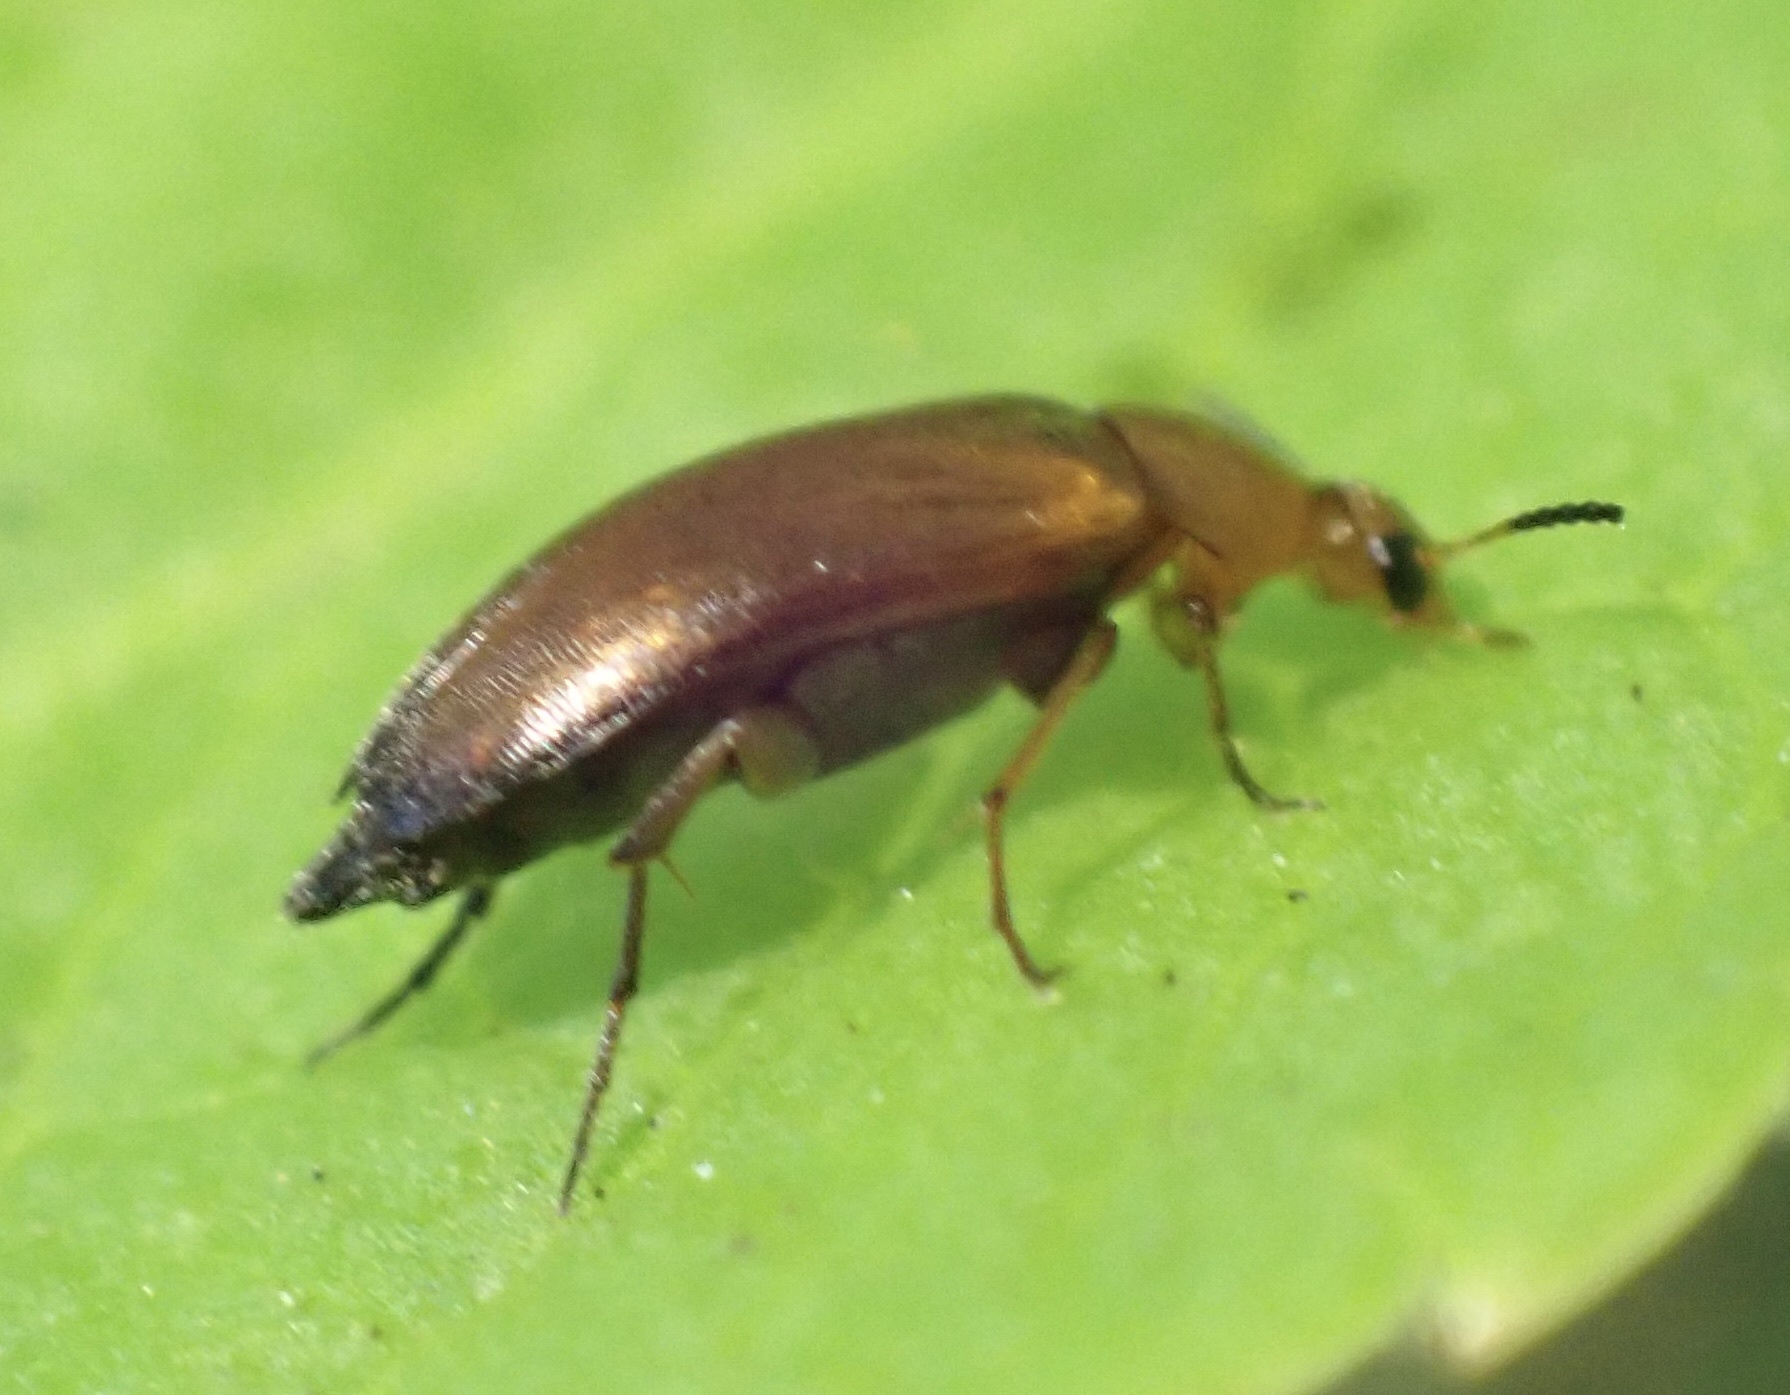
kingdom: Animalia
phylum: Arthropoda
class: Insecta
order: Coleoptera
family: Scraptiidae
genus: Anaspis
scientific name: Anaspis flava
